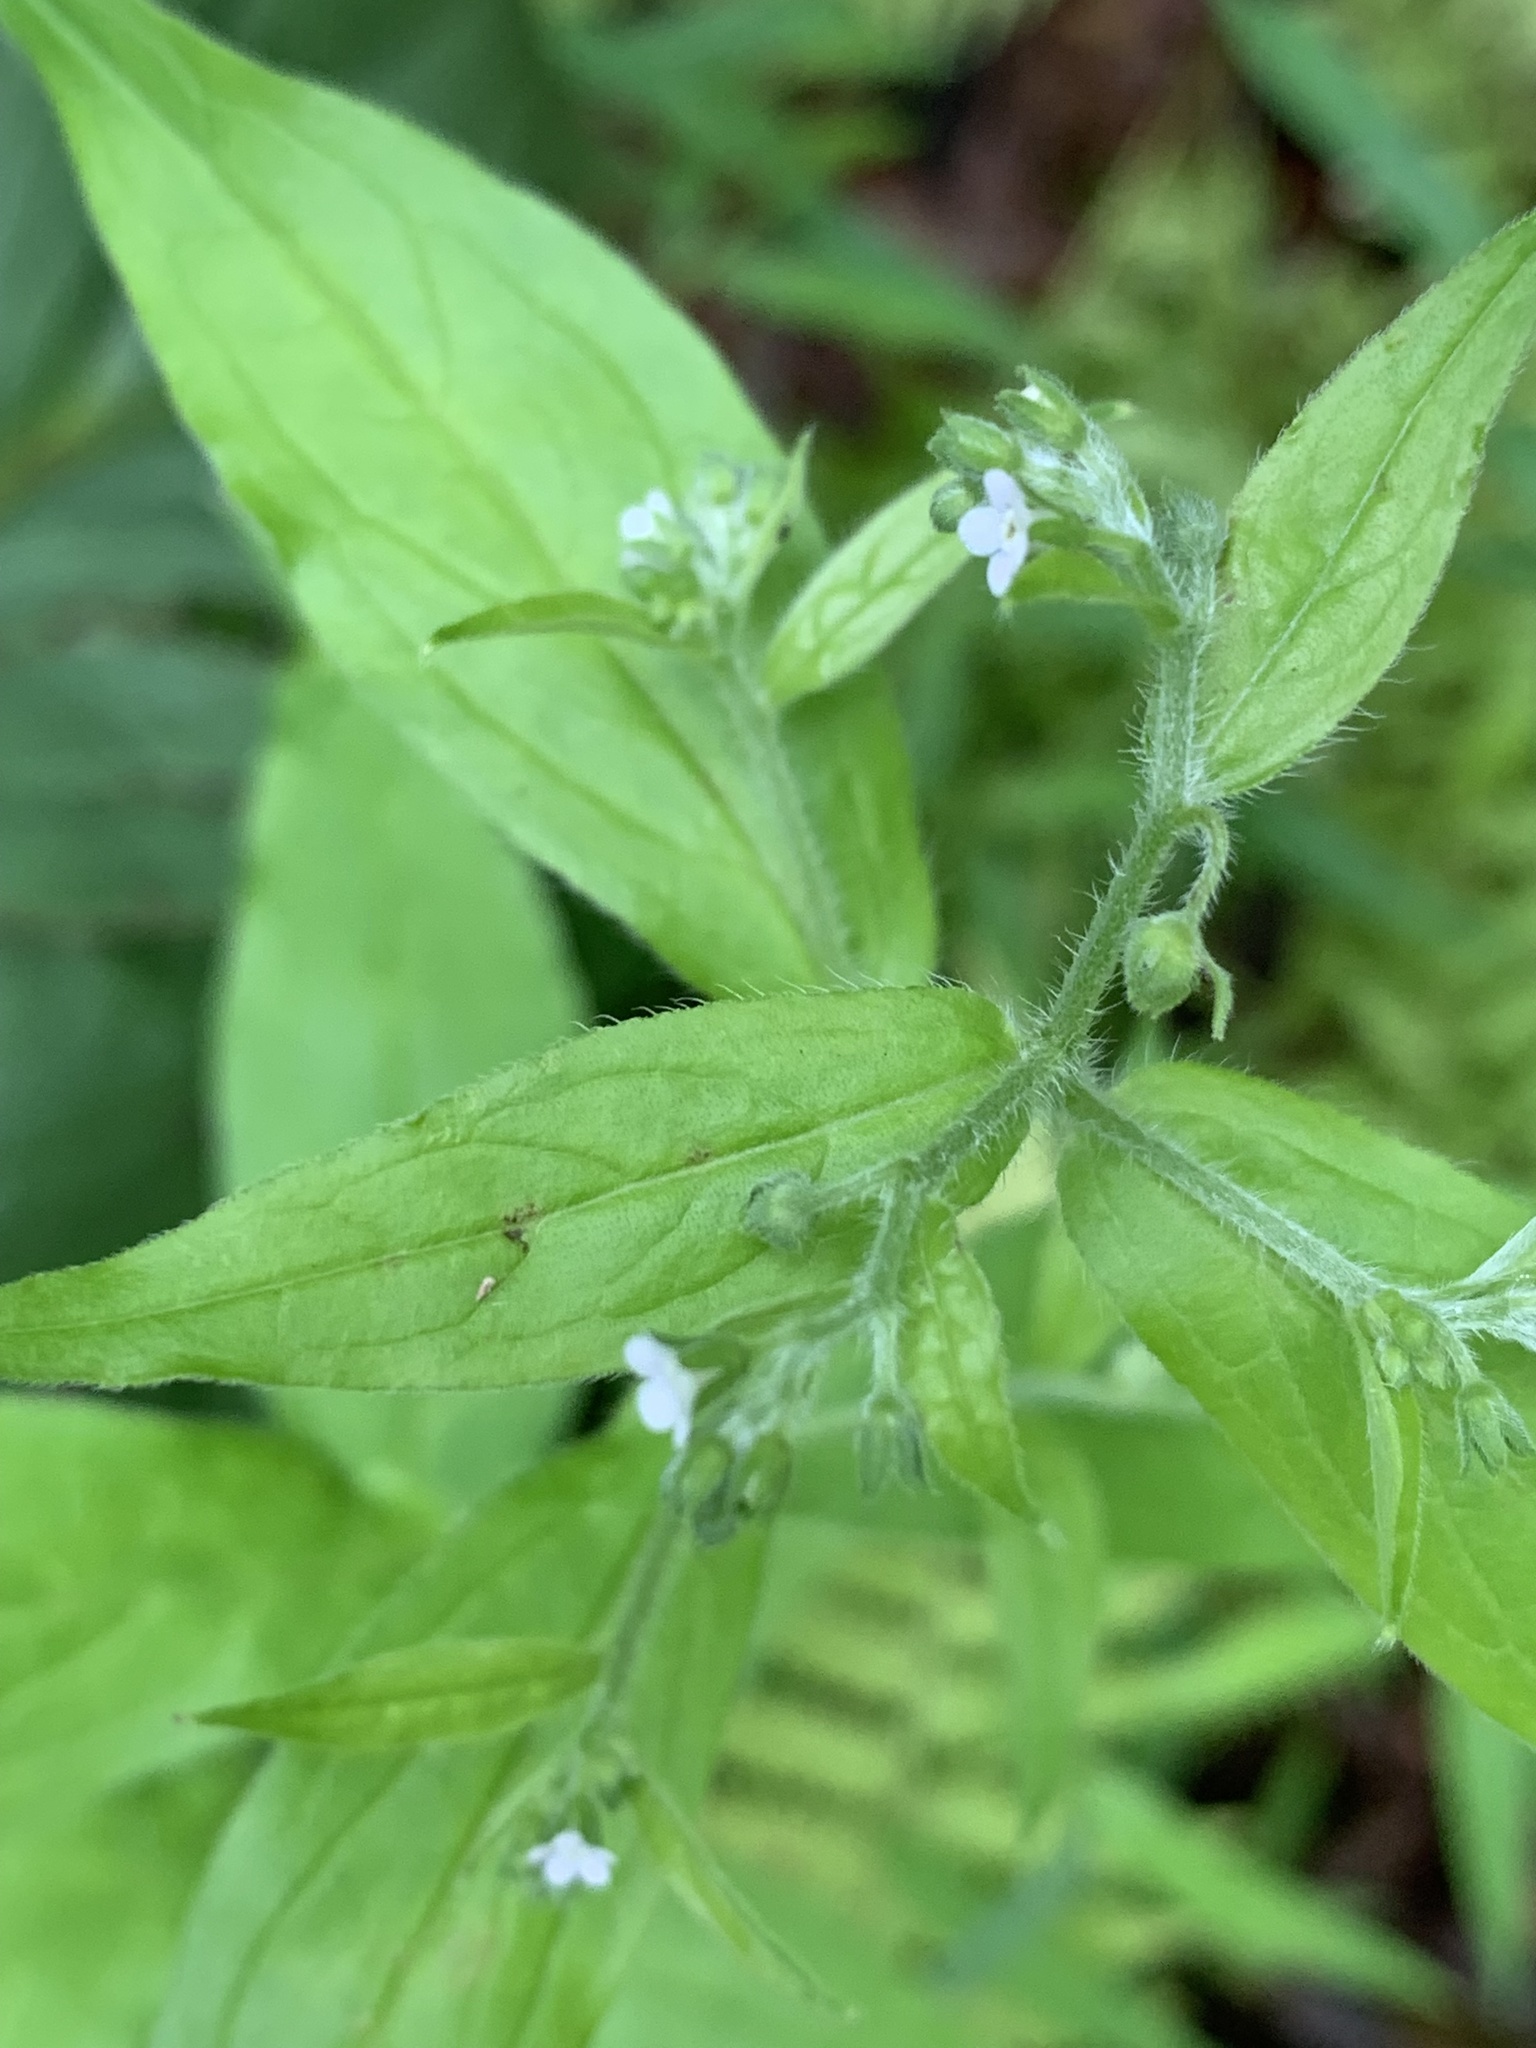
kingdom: Plantae
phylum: Tracheophyta
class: Magnoliopsida
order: Boraginales
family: Boraginaceae
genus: Hackelia
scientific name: Hackelia virginiana
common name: Beggar's-lice
